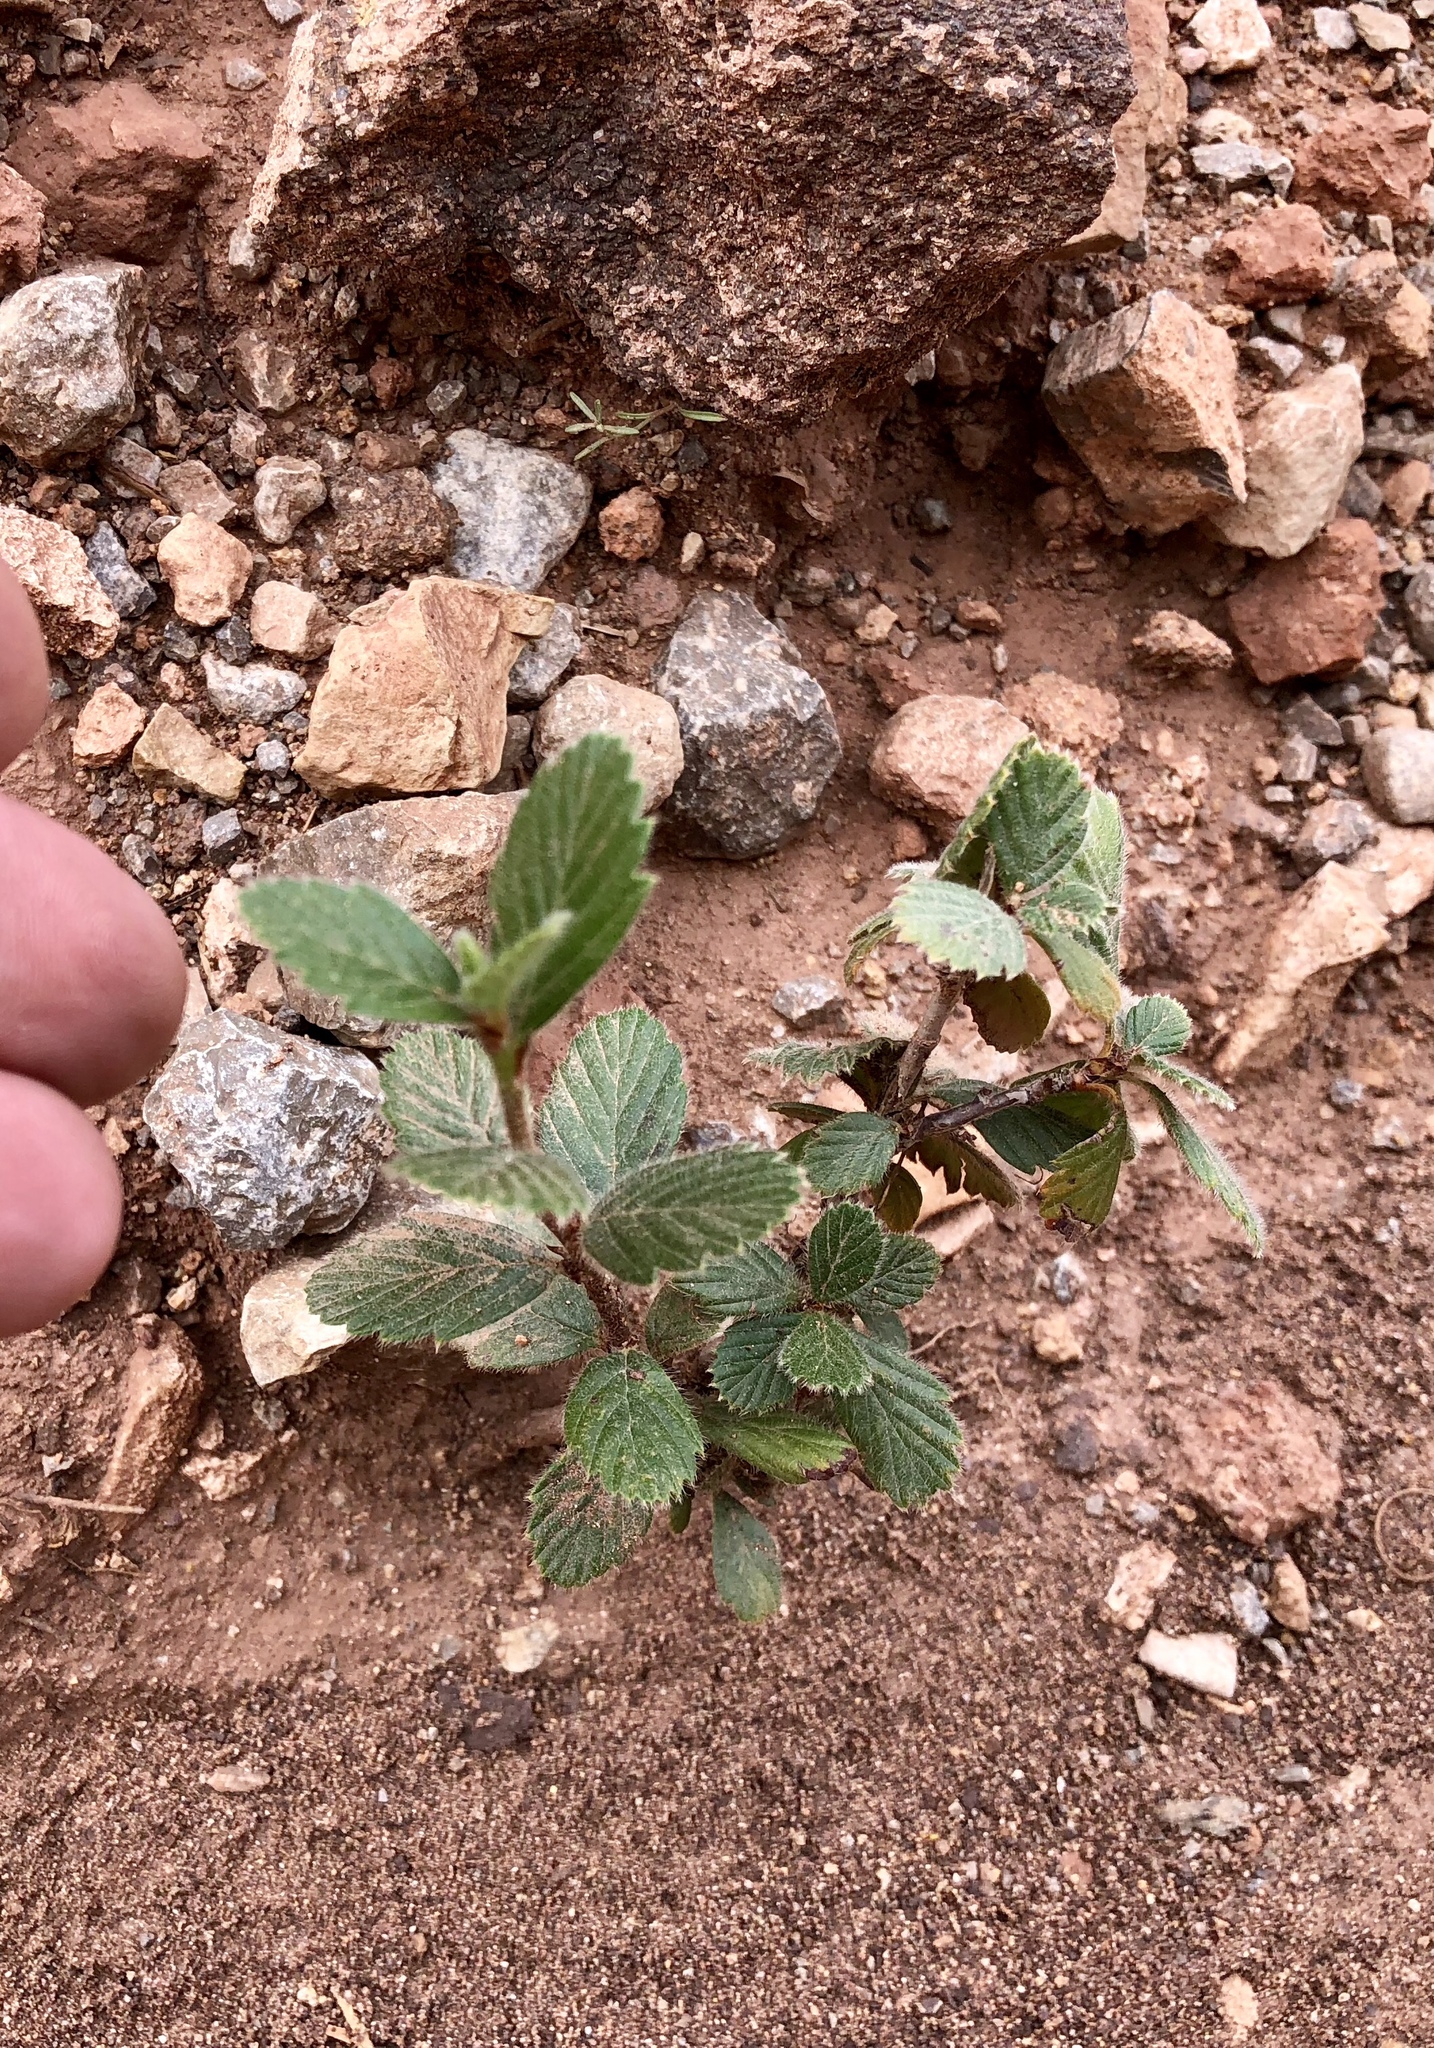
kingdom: Plantae
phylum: Tracheophyta
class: Magnoliopsida
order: Rosales
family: Rosaceae
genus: Cercocarpus
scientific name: Cercocarpus montanus
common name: Alder-leaf cercocarpus
